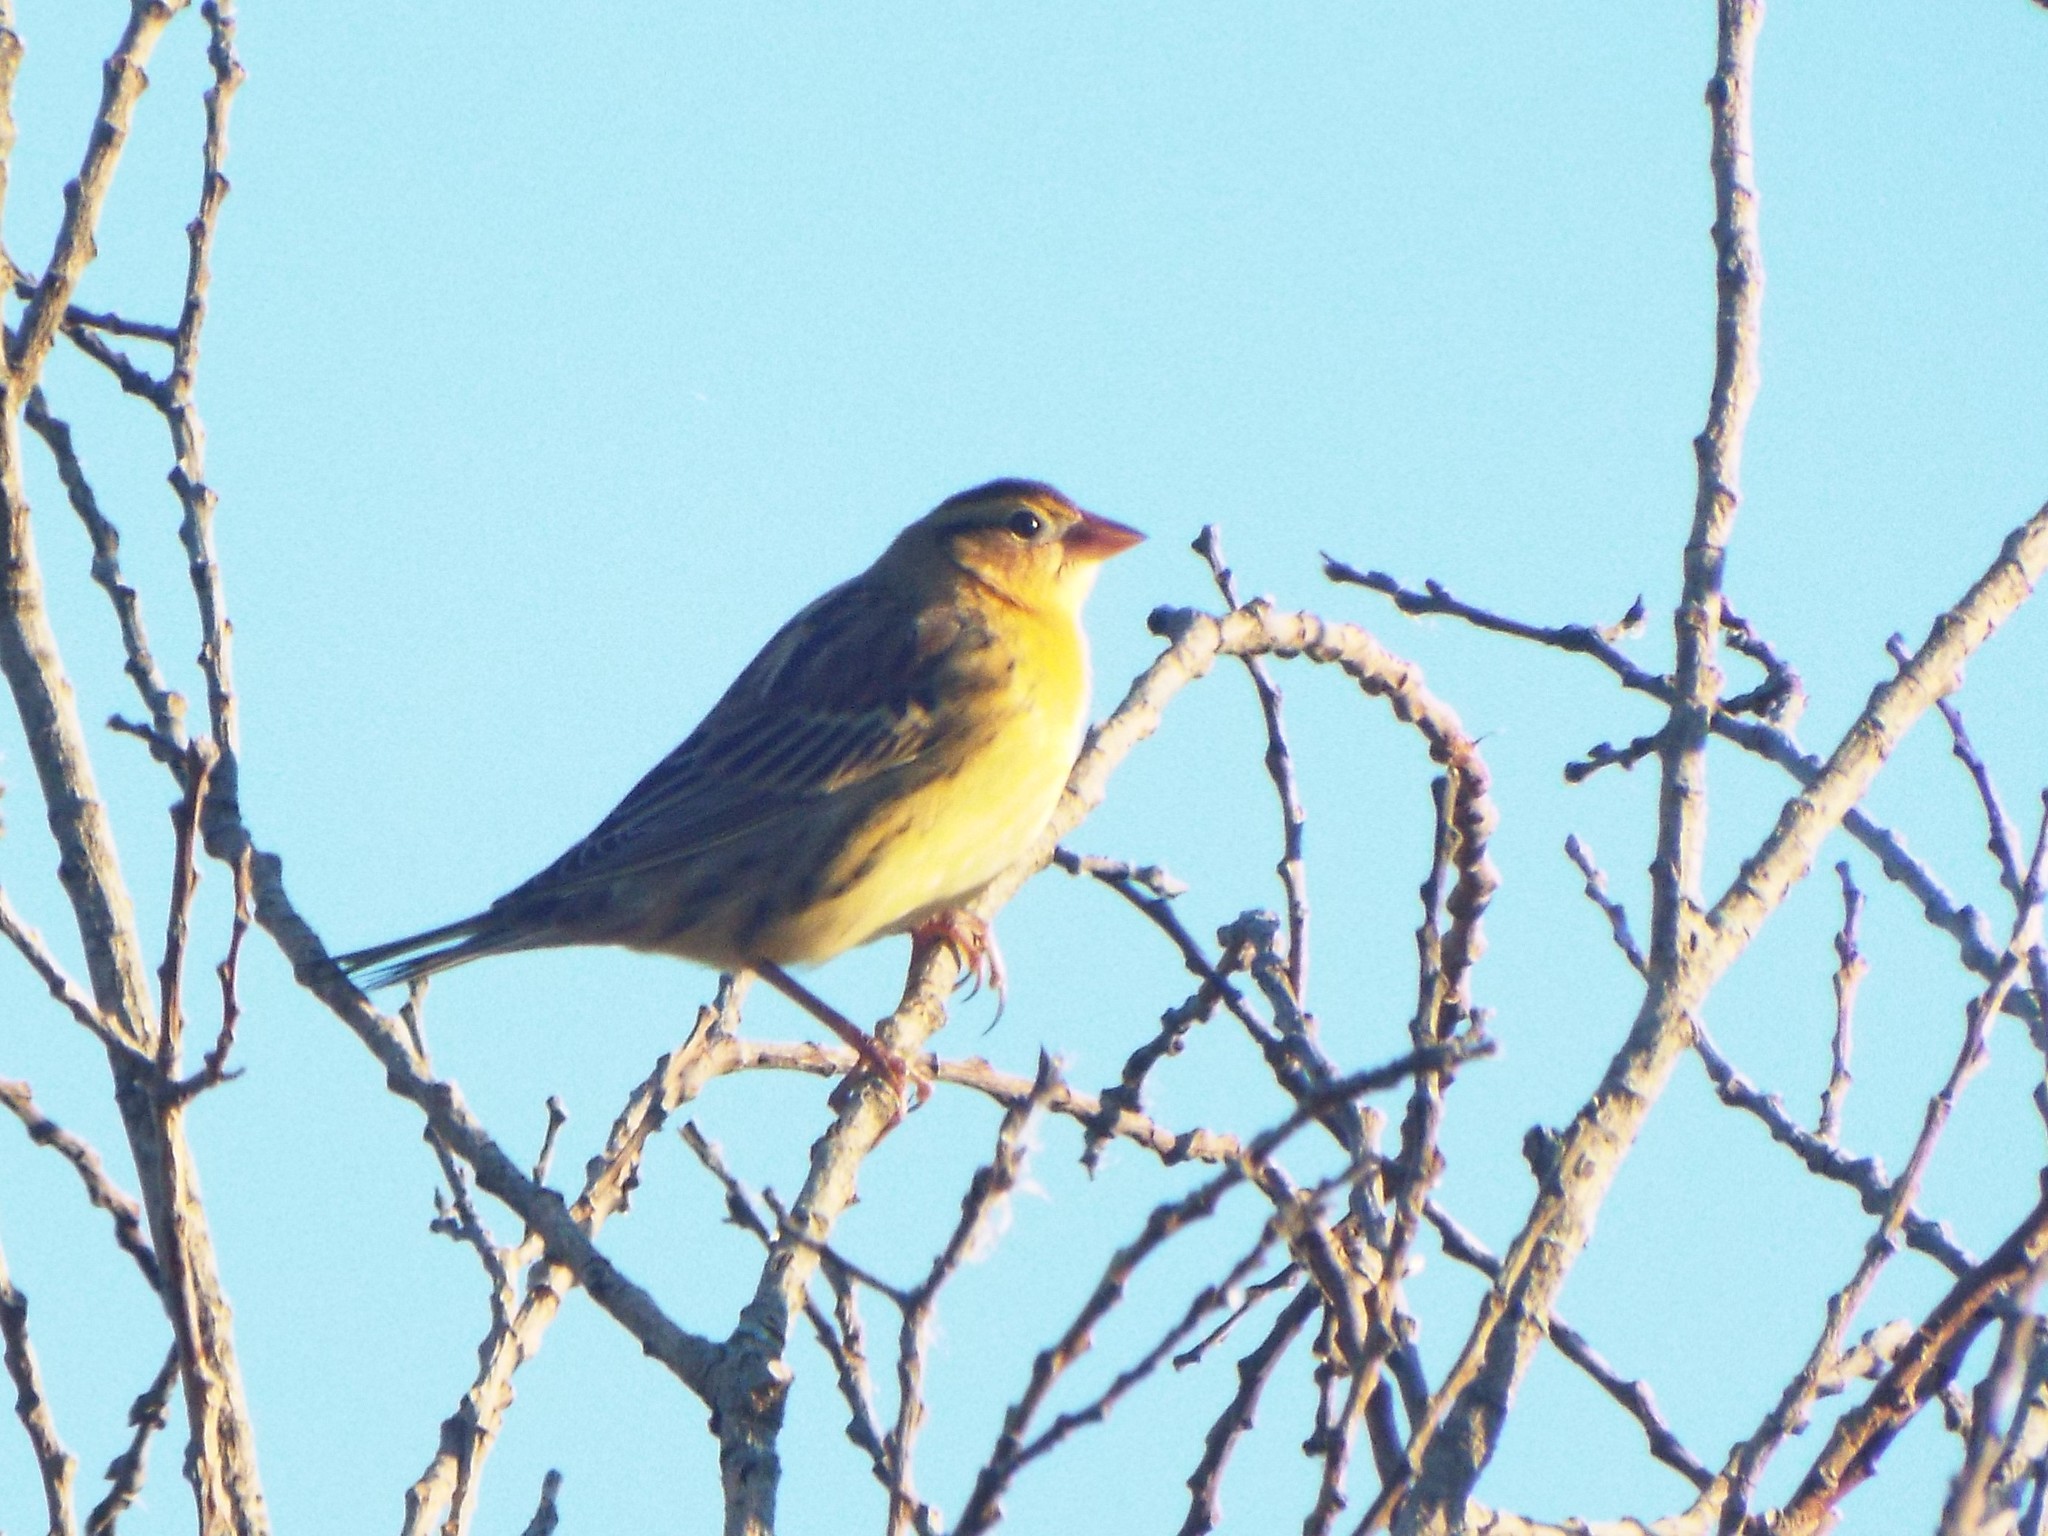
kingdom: Animalia
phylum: Chordata
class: Aves
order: Passeriformes
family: Icteridae
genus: Dolichonyx
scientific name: Dolichonyx oryzivorus
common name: Bobolink
